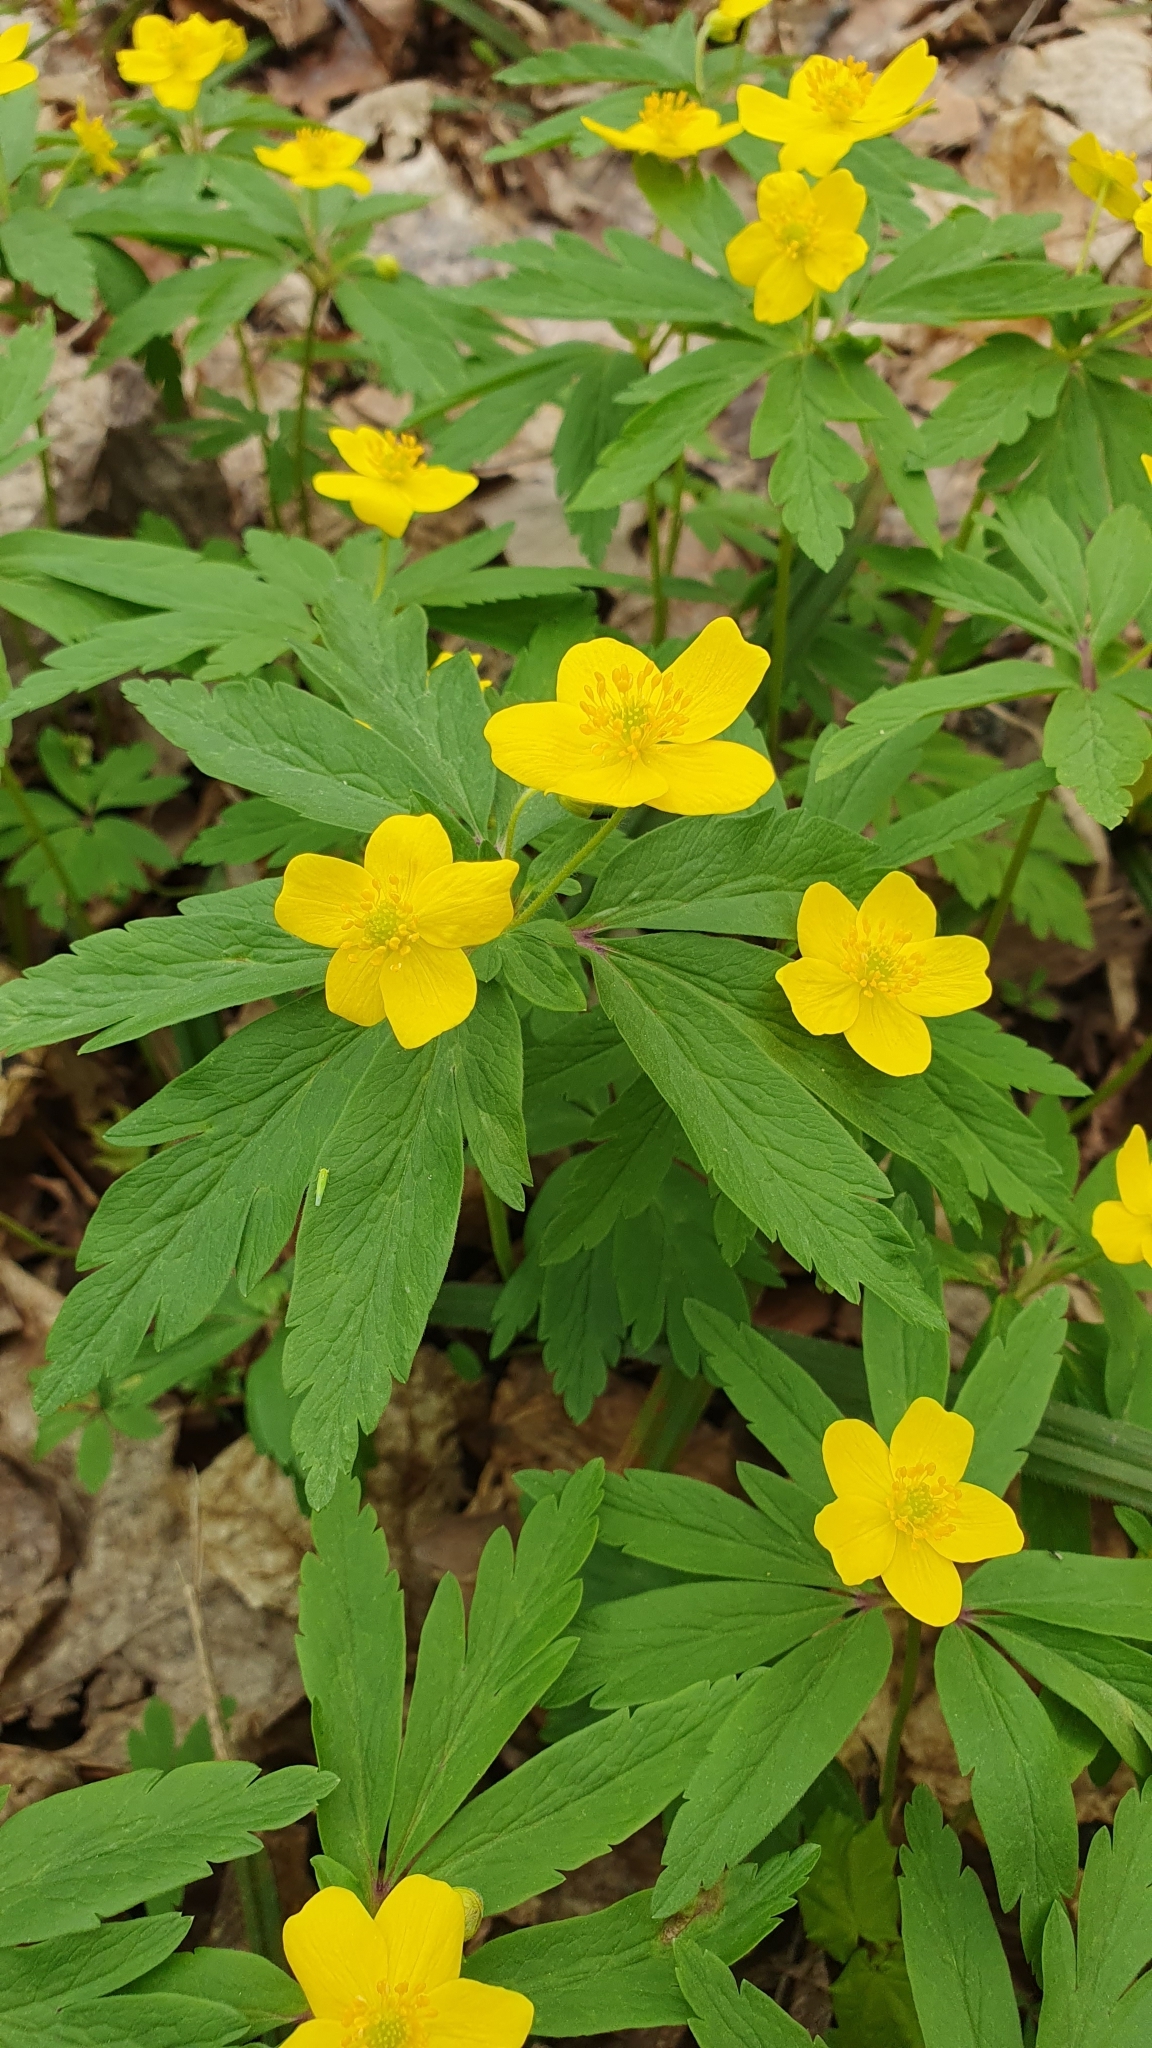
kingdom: Plantae
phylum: Tracheophyta
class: Magnoliopsida
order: Ranunculales
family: Ranunculaceae
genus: Anemone
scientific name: Anemone ranunculoides
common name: Yellow anemone
